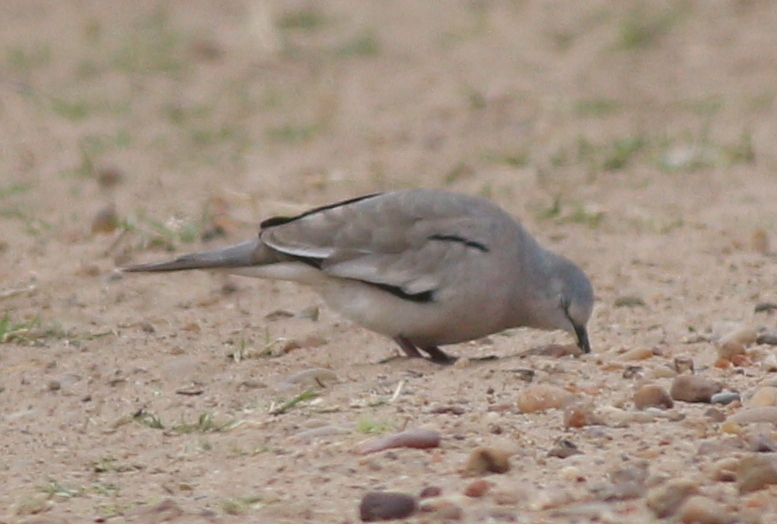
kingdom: Animalia
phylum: Chordata
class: Aves
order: Columbiformes
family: Columbidae
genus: Columbina
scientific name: Columbina picui
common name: Picui ground dove
